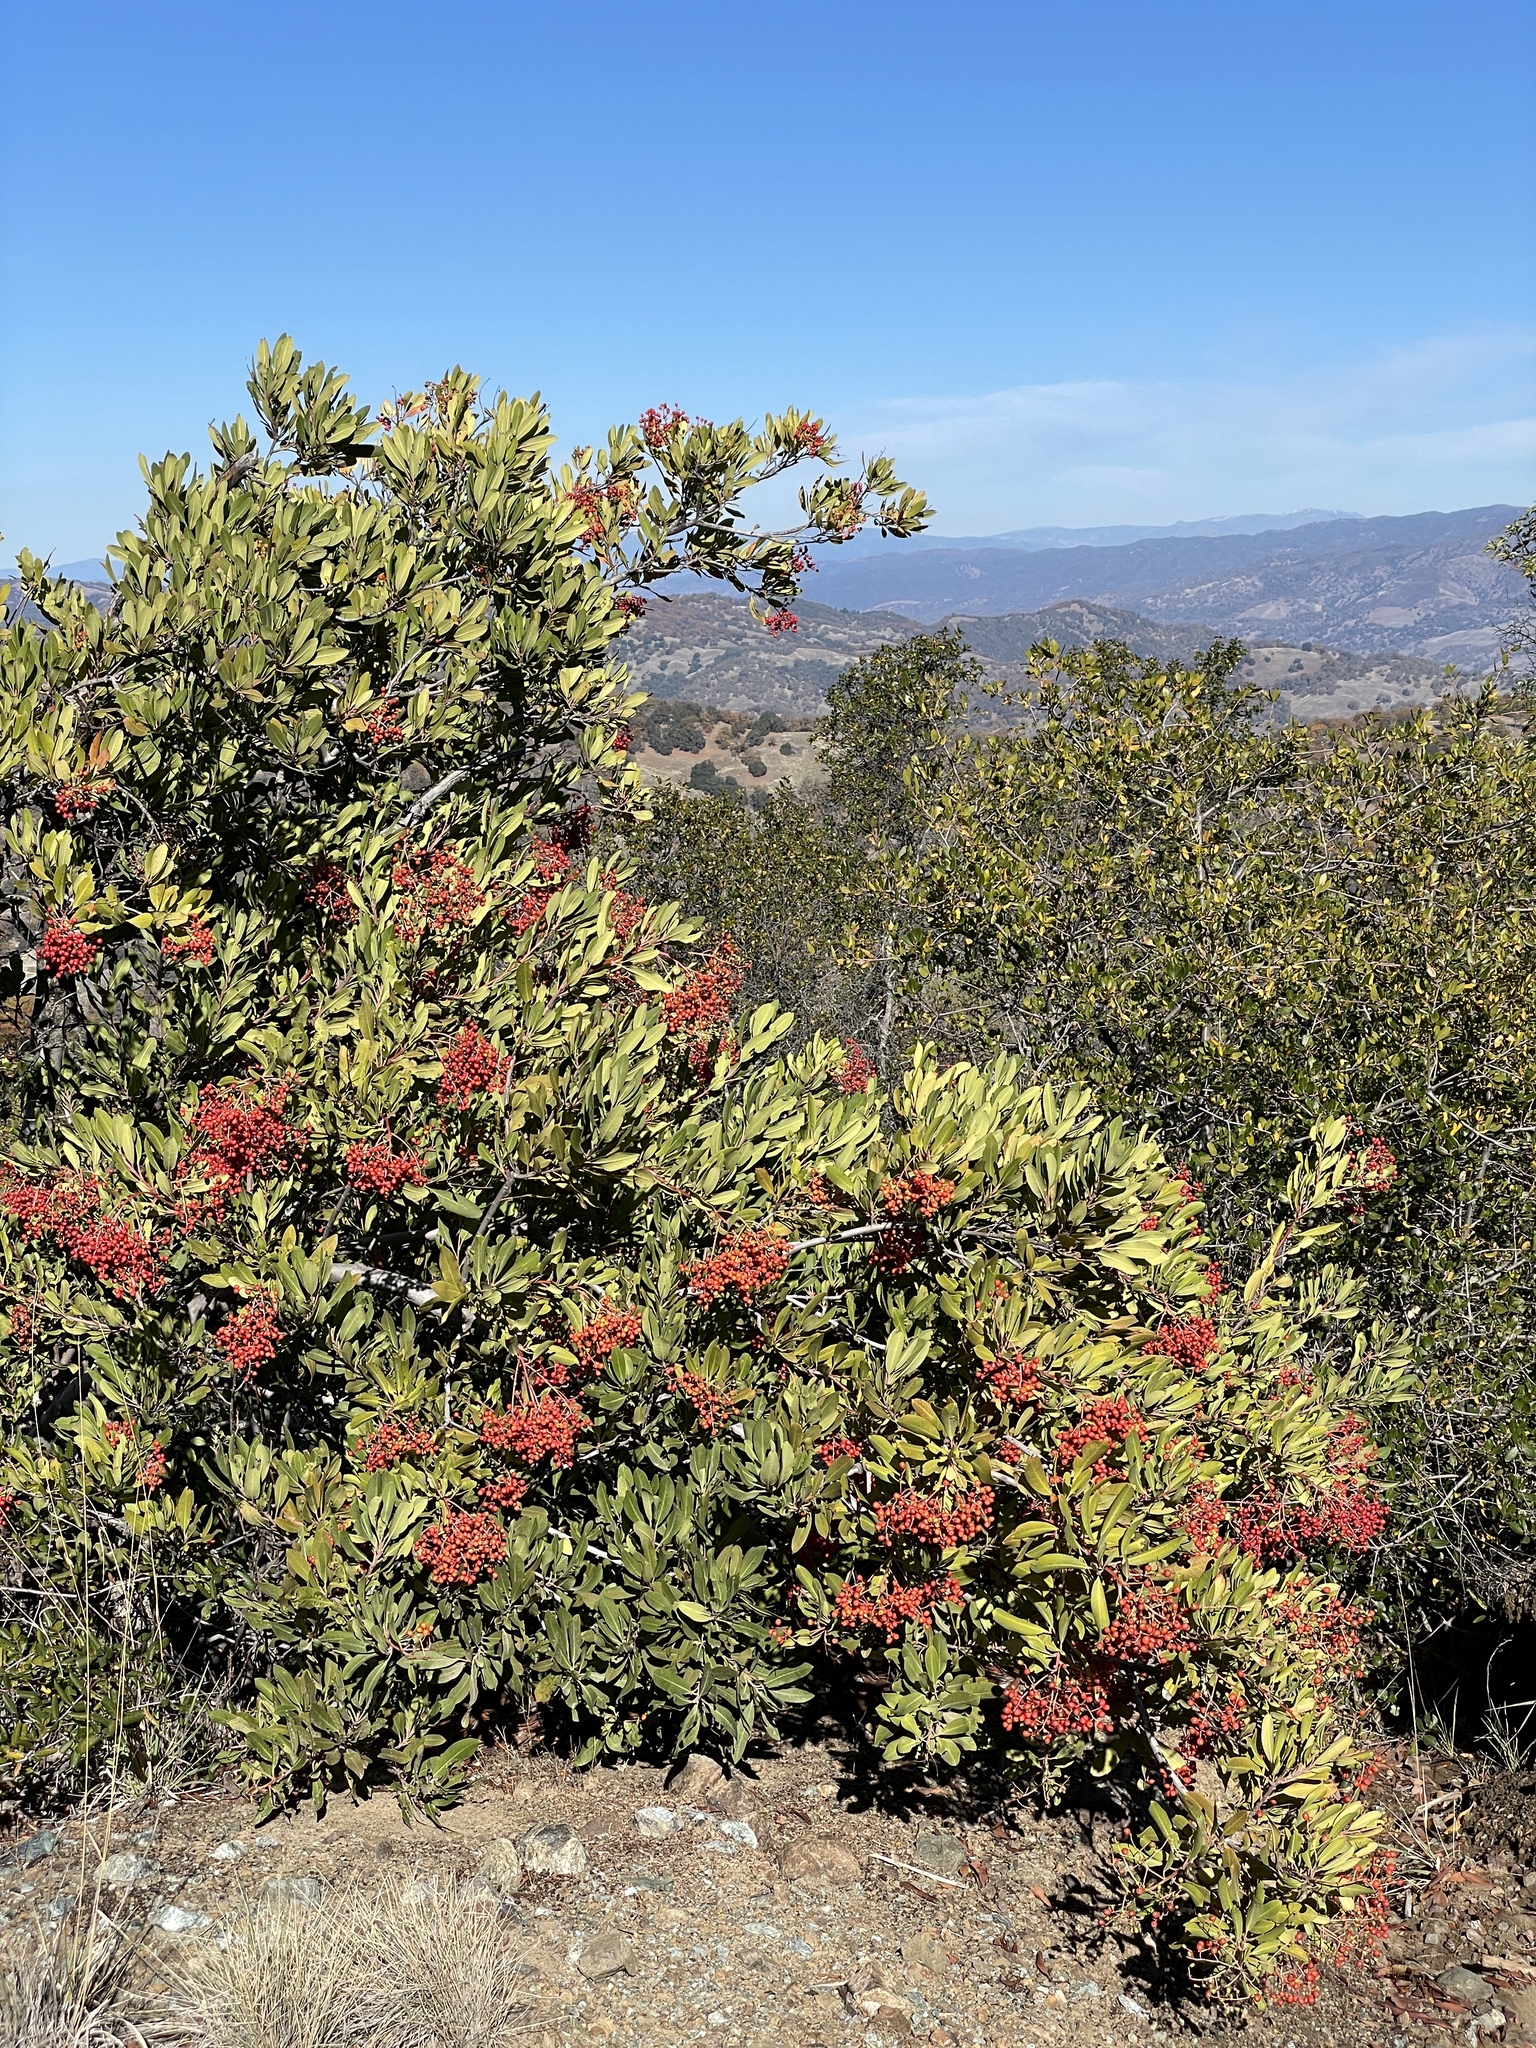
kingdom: Plantae
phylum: Tracheophyta
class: Magnoliopsida
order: Rosales
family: Rosaceae
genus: Heteromeles
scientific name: Heteromeles arbutifolia
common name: California-holly
